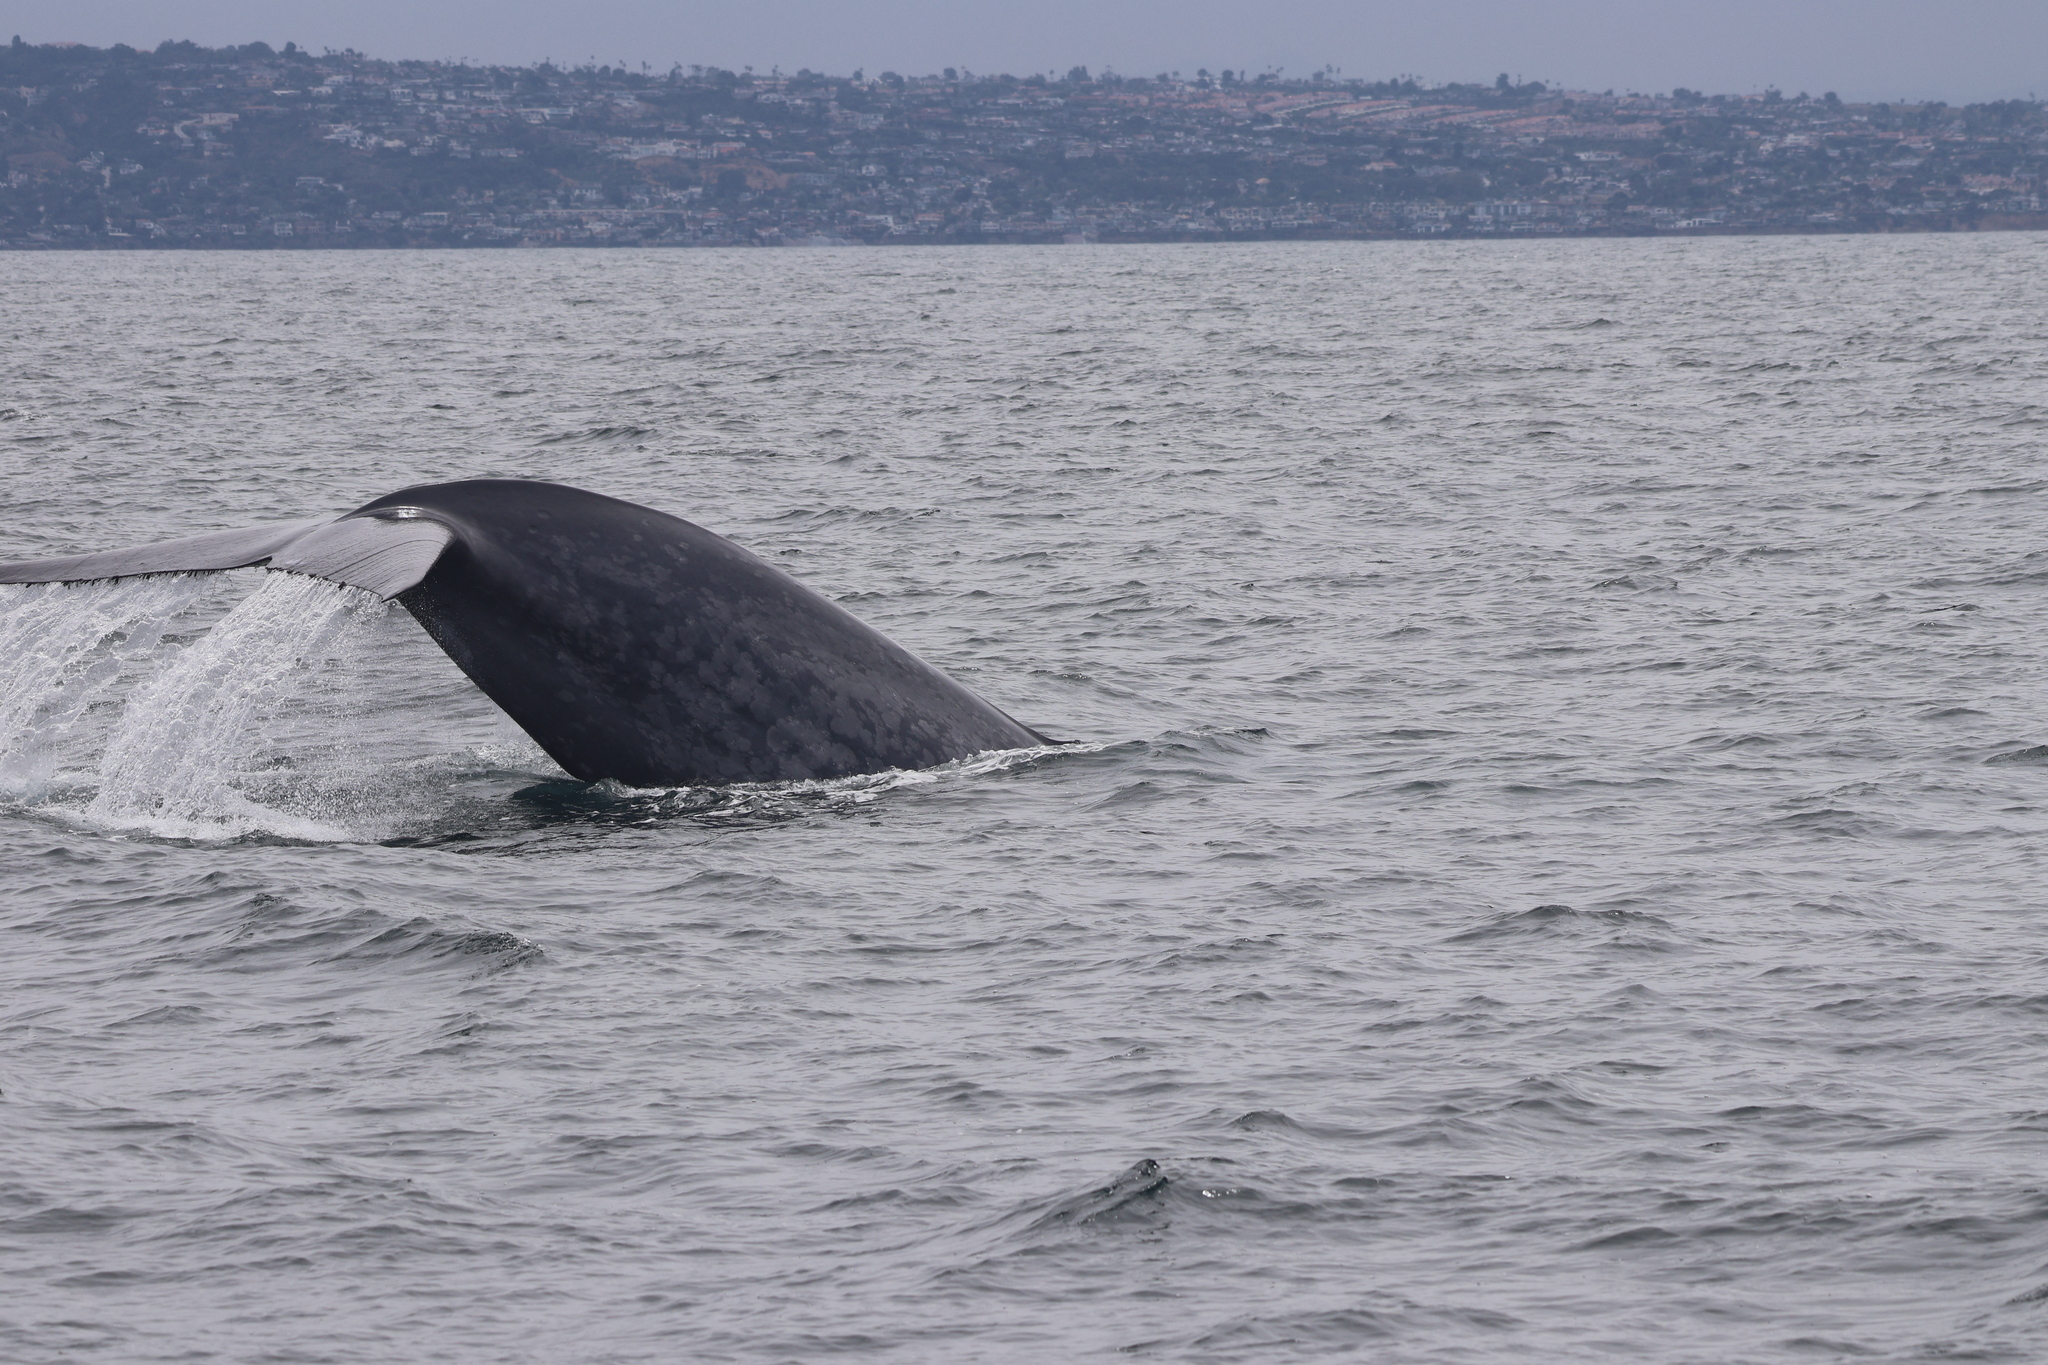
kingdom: Animalia
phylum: Chordata
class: Mammalia
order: Cetacea
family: Balaenopteridae
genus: Balaenoptera
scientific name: Balaenoptera musculus
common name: Blue whale
